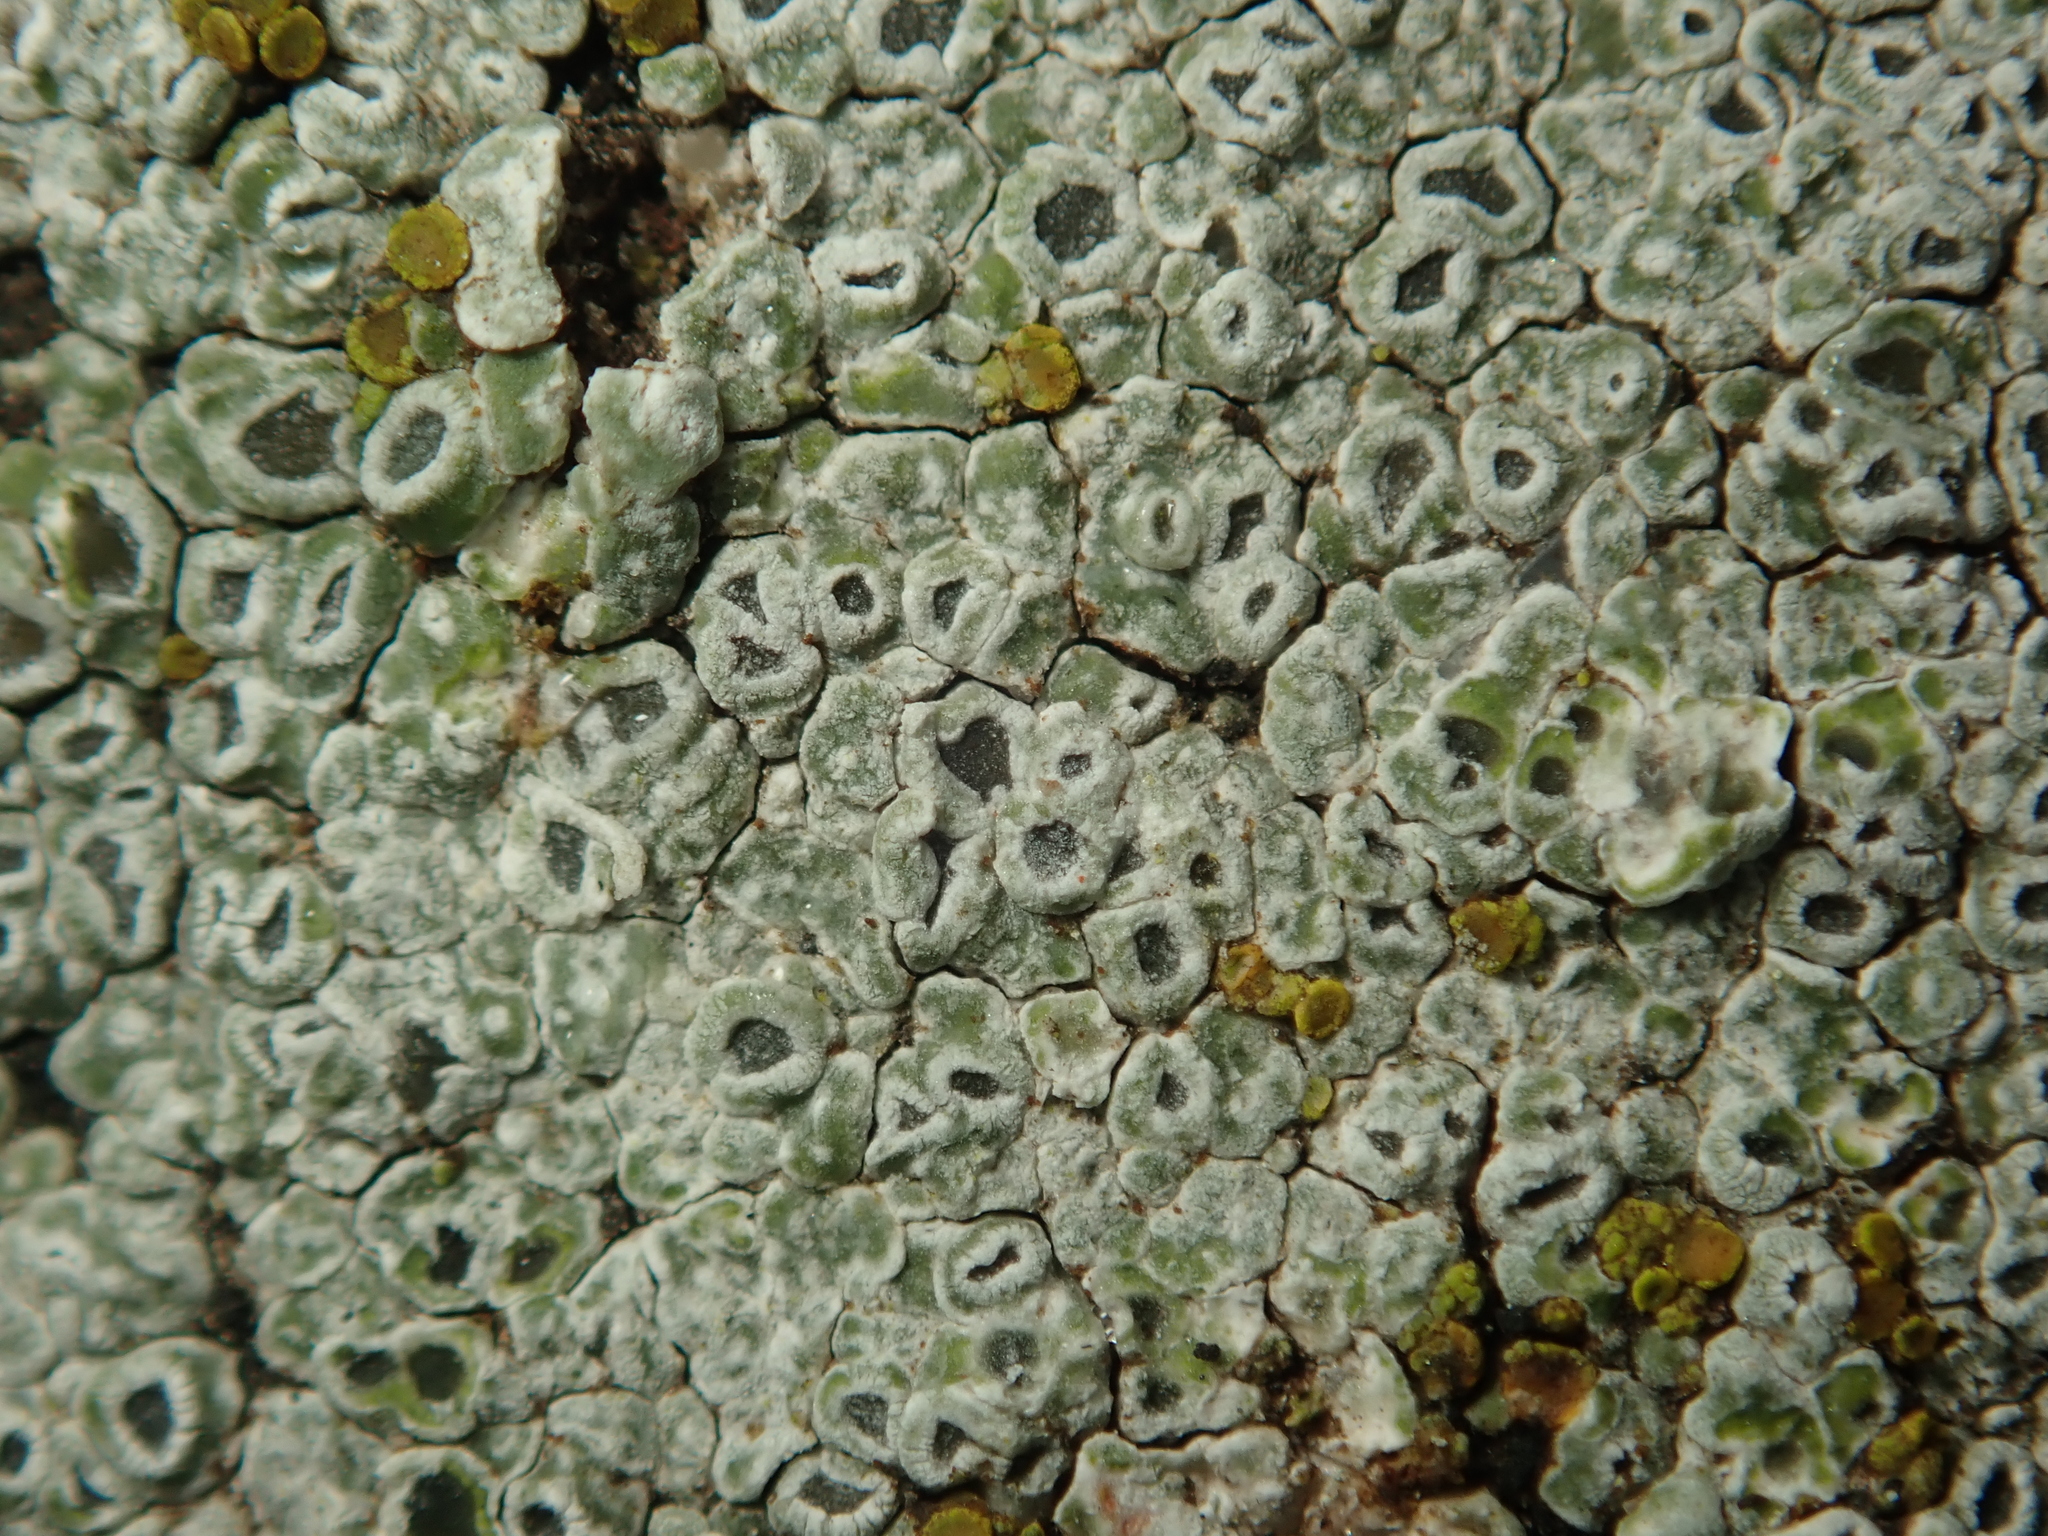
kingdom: Fungi
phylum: Ascomycota
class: Lecanoromycetes
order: Pertusariales
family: Megasporaceae
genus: Circinaria
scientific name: Circinaria contorta
